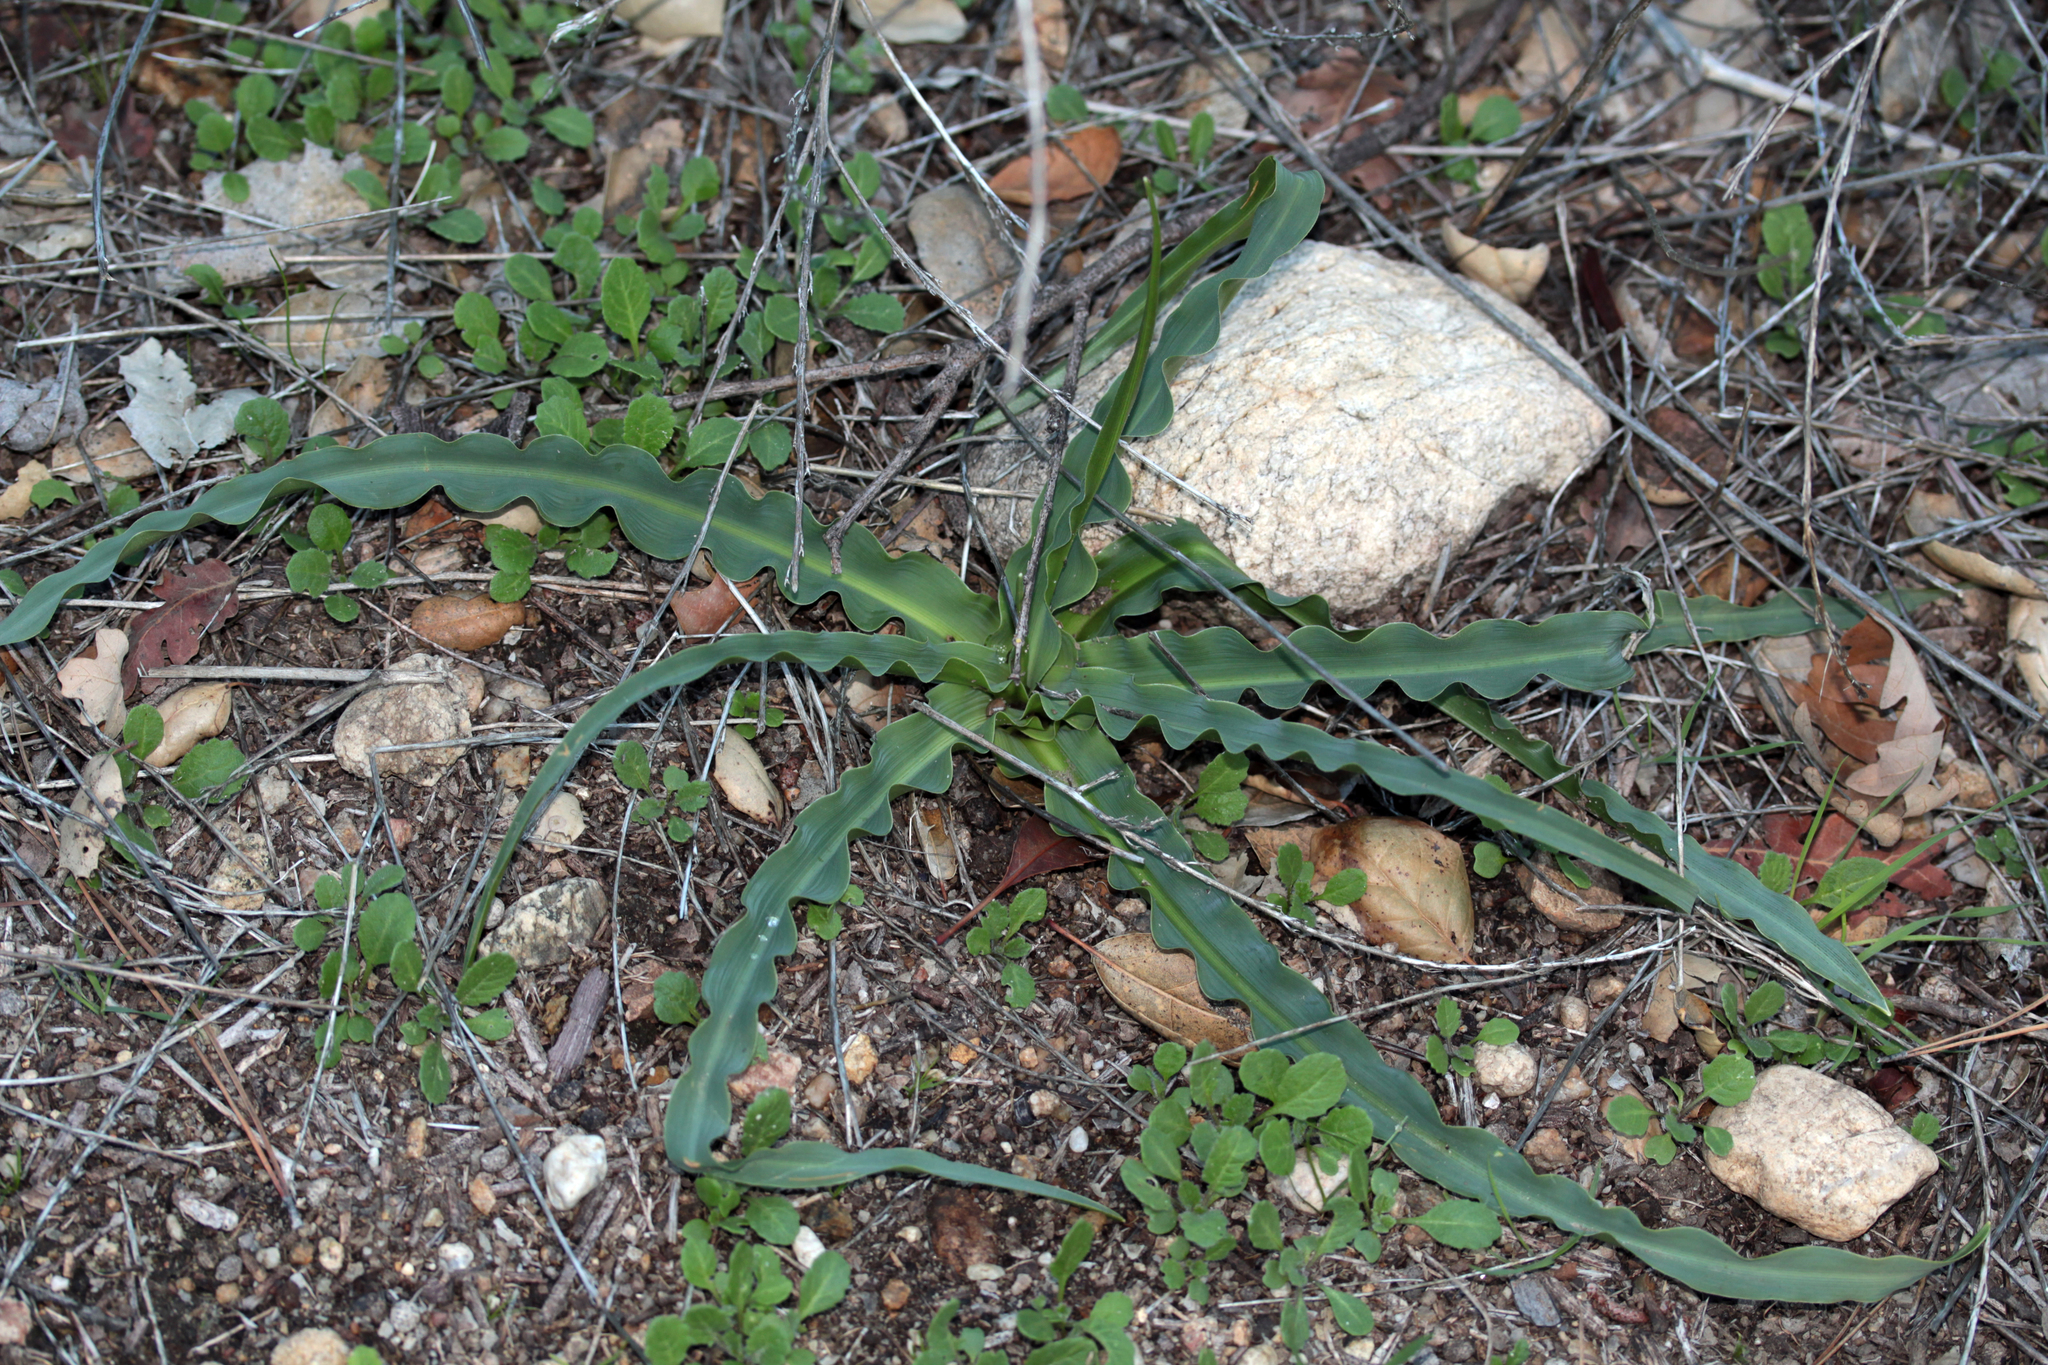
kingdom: Plantae
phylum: Tracheophyta
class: Liliopsida
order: Asparagales
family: Asparagaceae
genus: Chlorogalum
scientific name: Chlorogalum pomeridianum
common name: Amole
